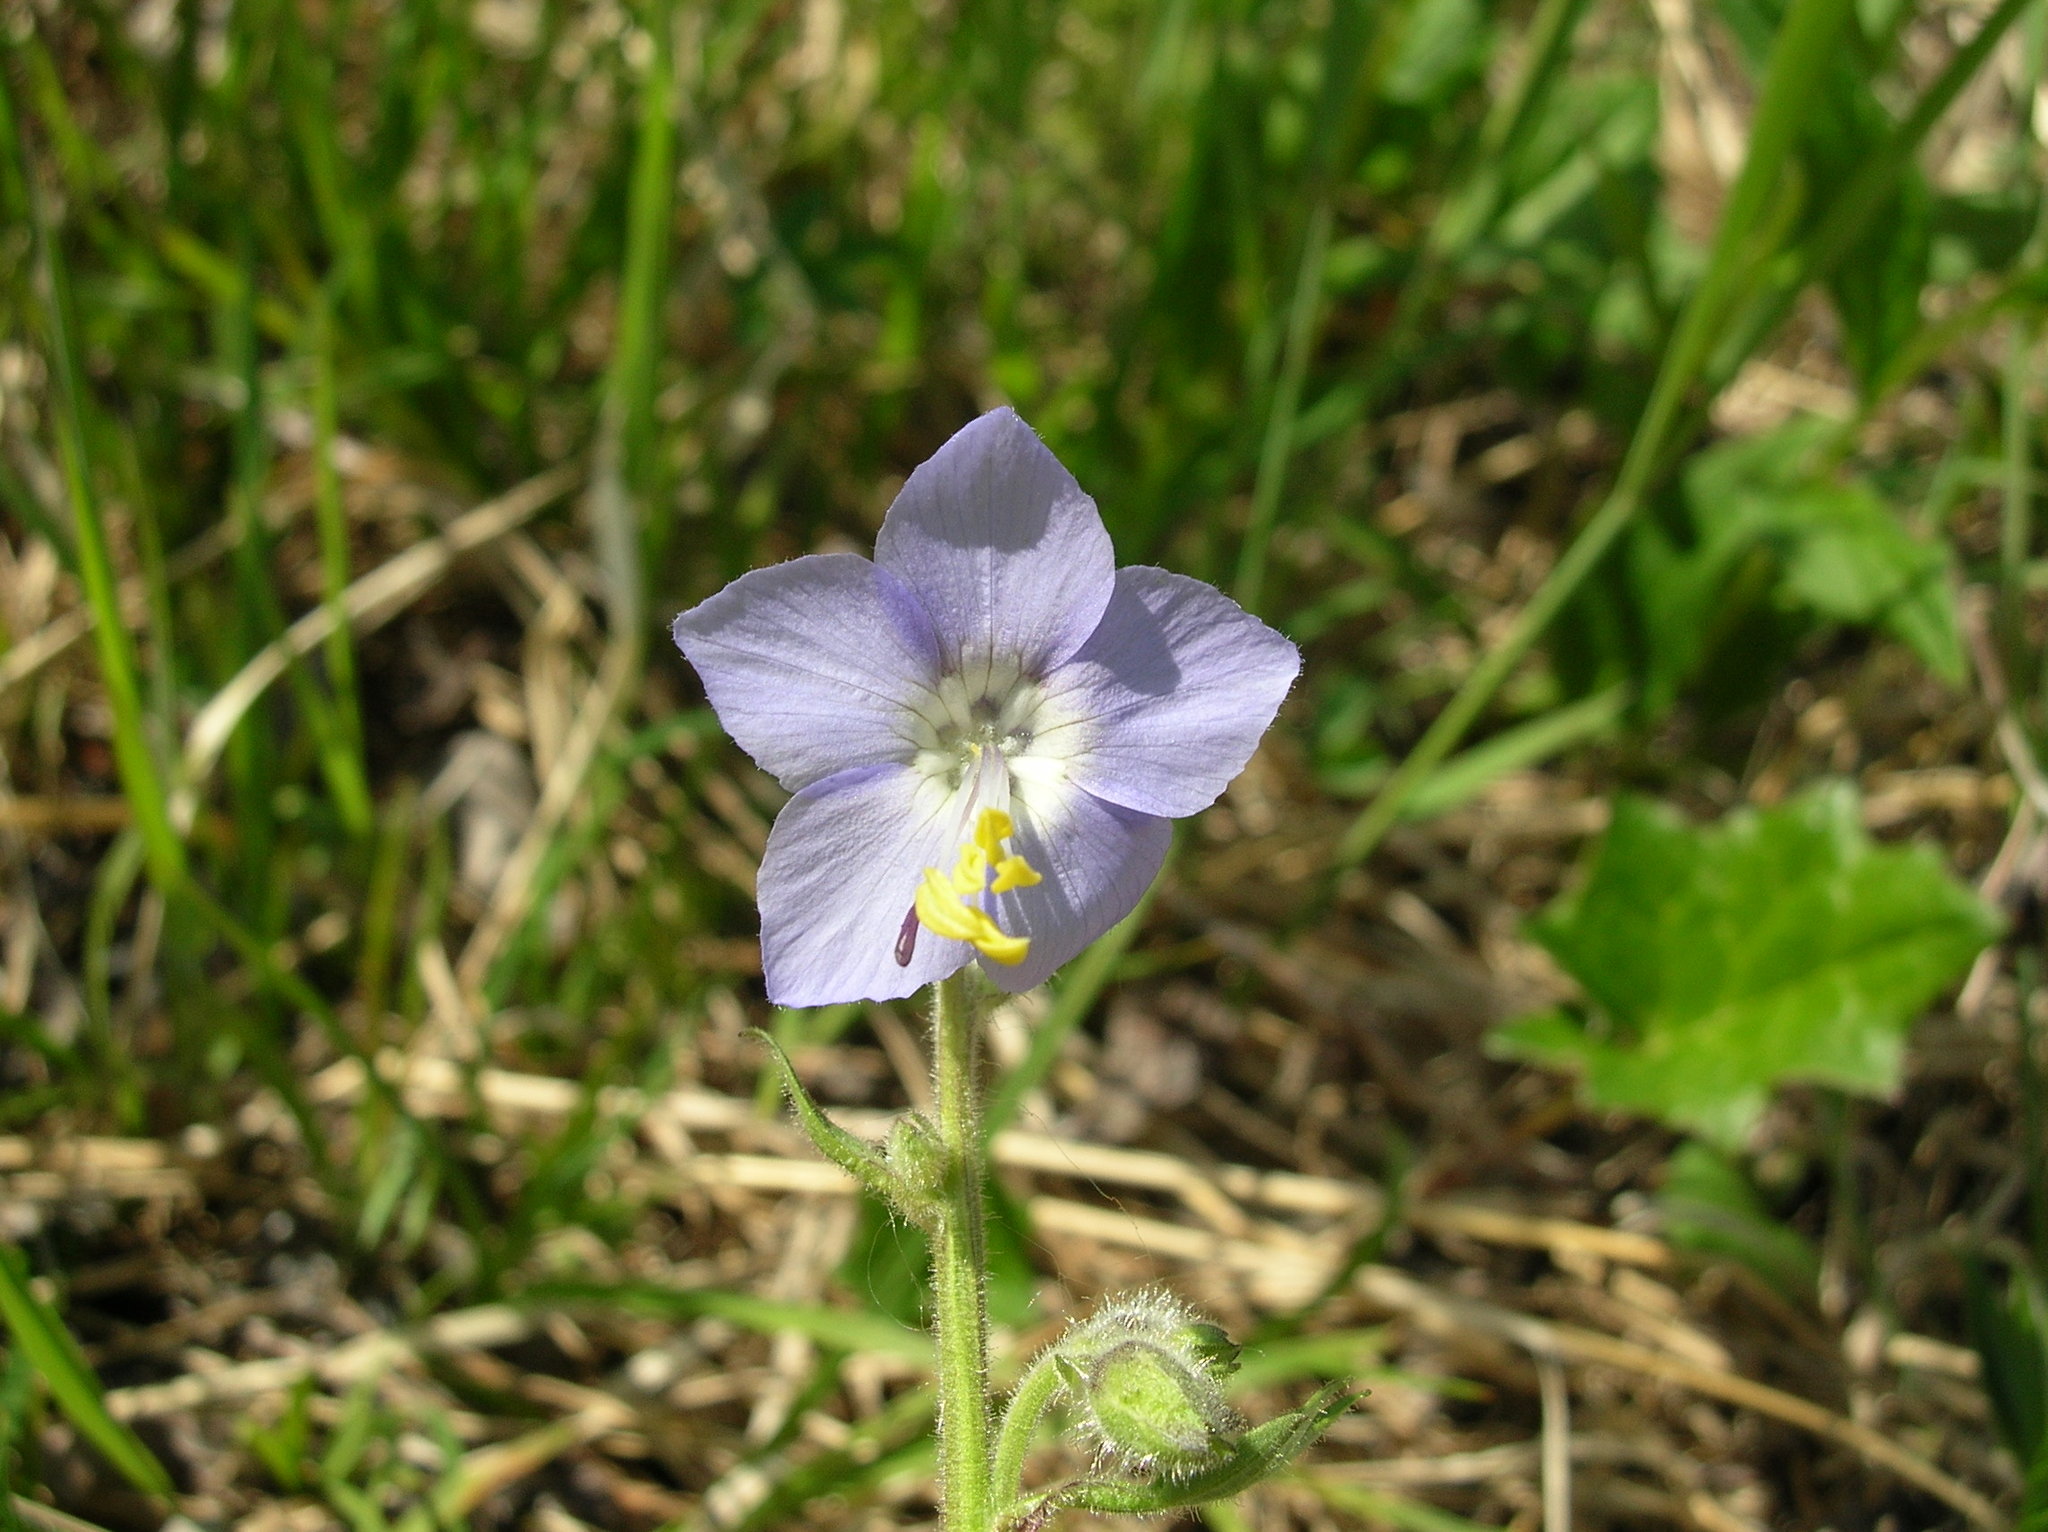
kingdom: Plantae
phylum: Tracheophyta
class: Magnoliopsida
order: Ericales
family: Polemoniaceae
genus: Polemonium
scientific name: Polemonium acutiflorum
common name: Tall jacob's-ladder
